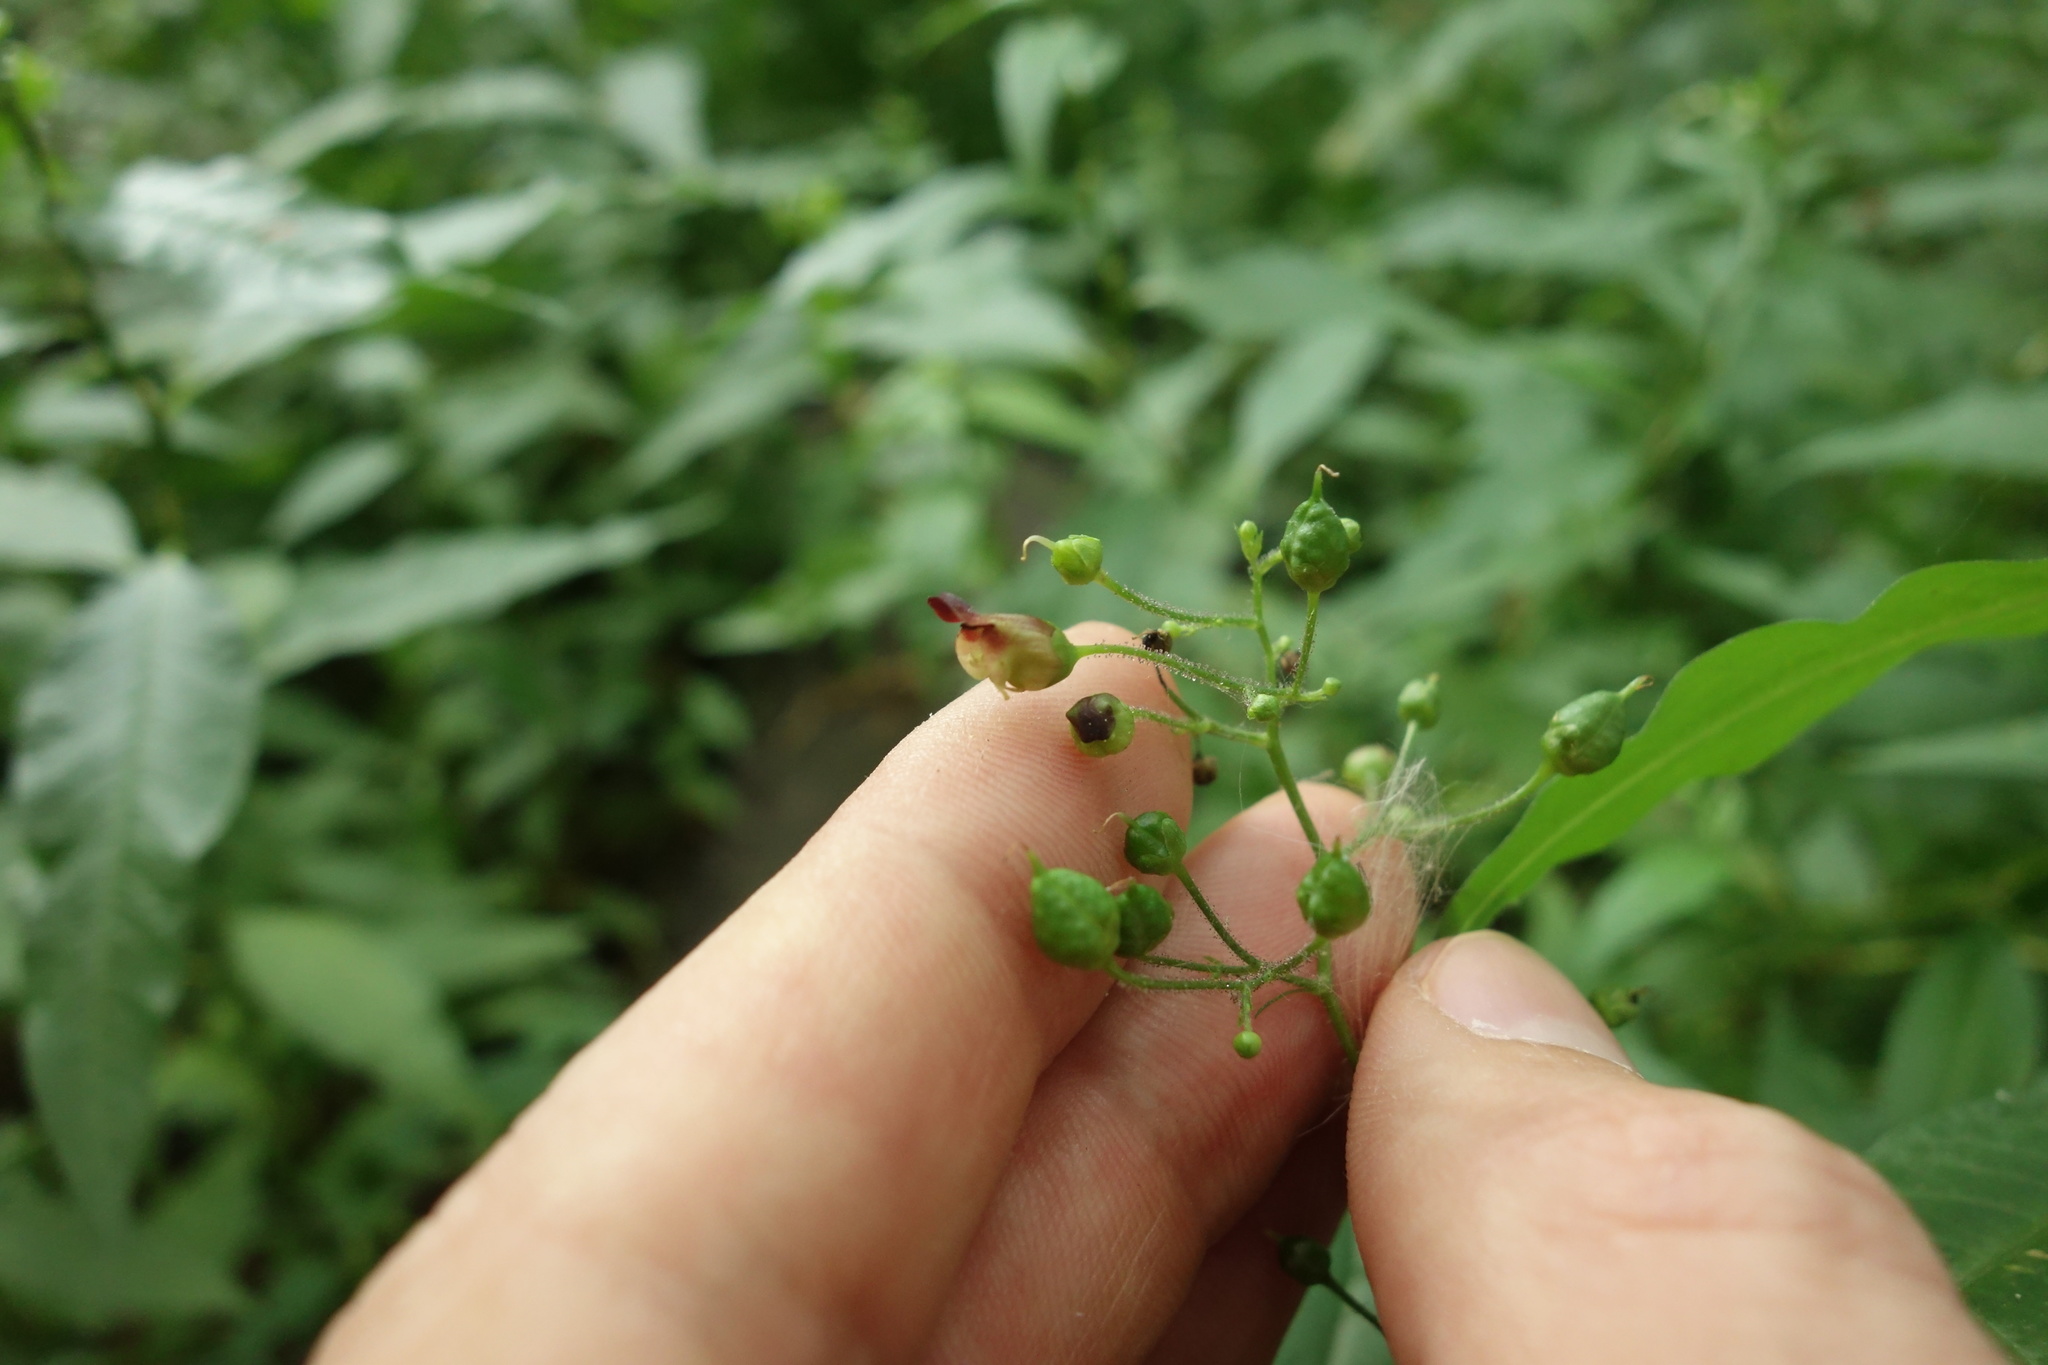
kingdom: Plantae
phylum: Tracheophyta
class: Magnoliopsida
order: Lamiales
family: Scrophulariaceae
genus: Scrophularia
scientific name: Scrophularia nodosa
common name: Common figwort
